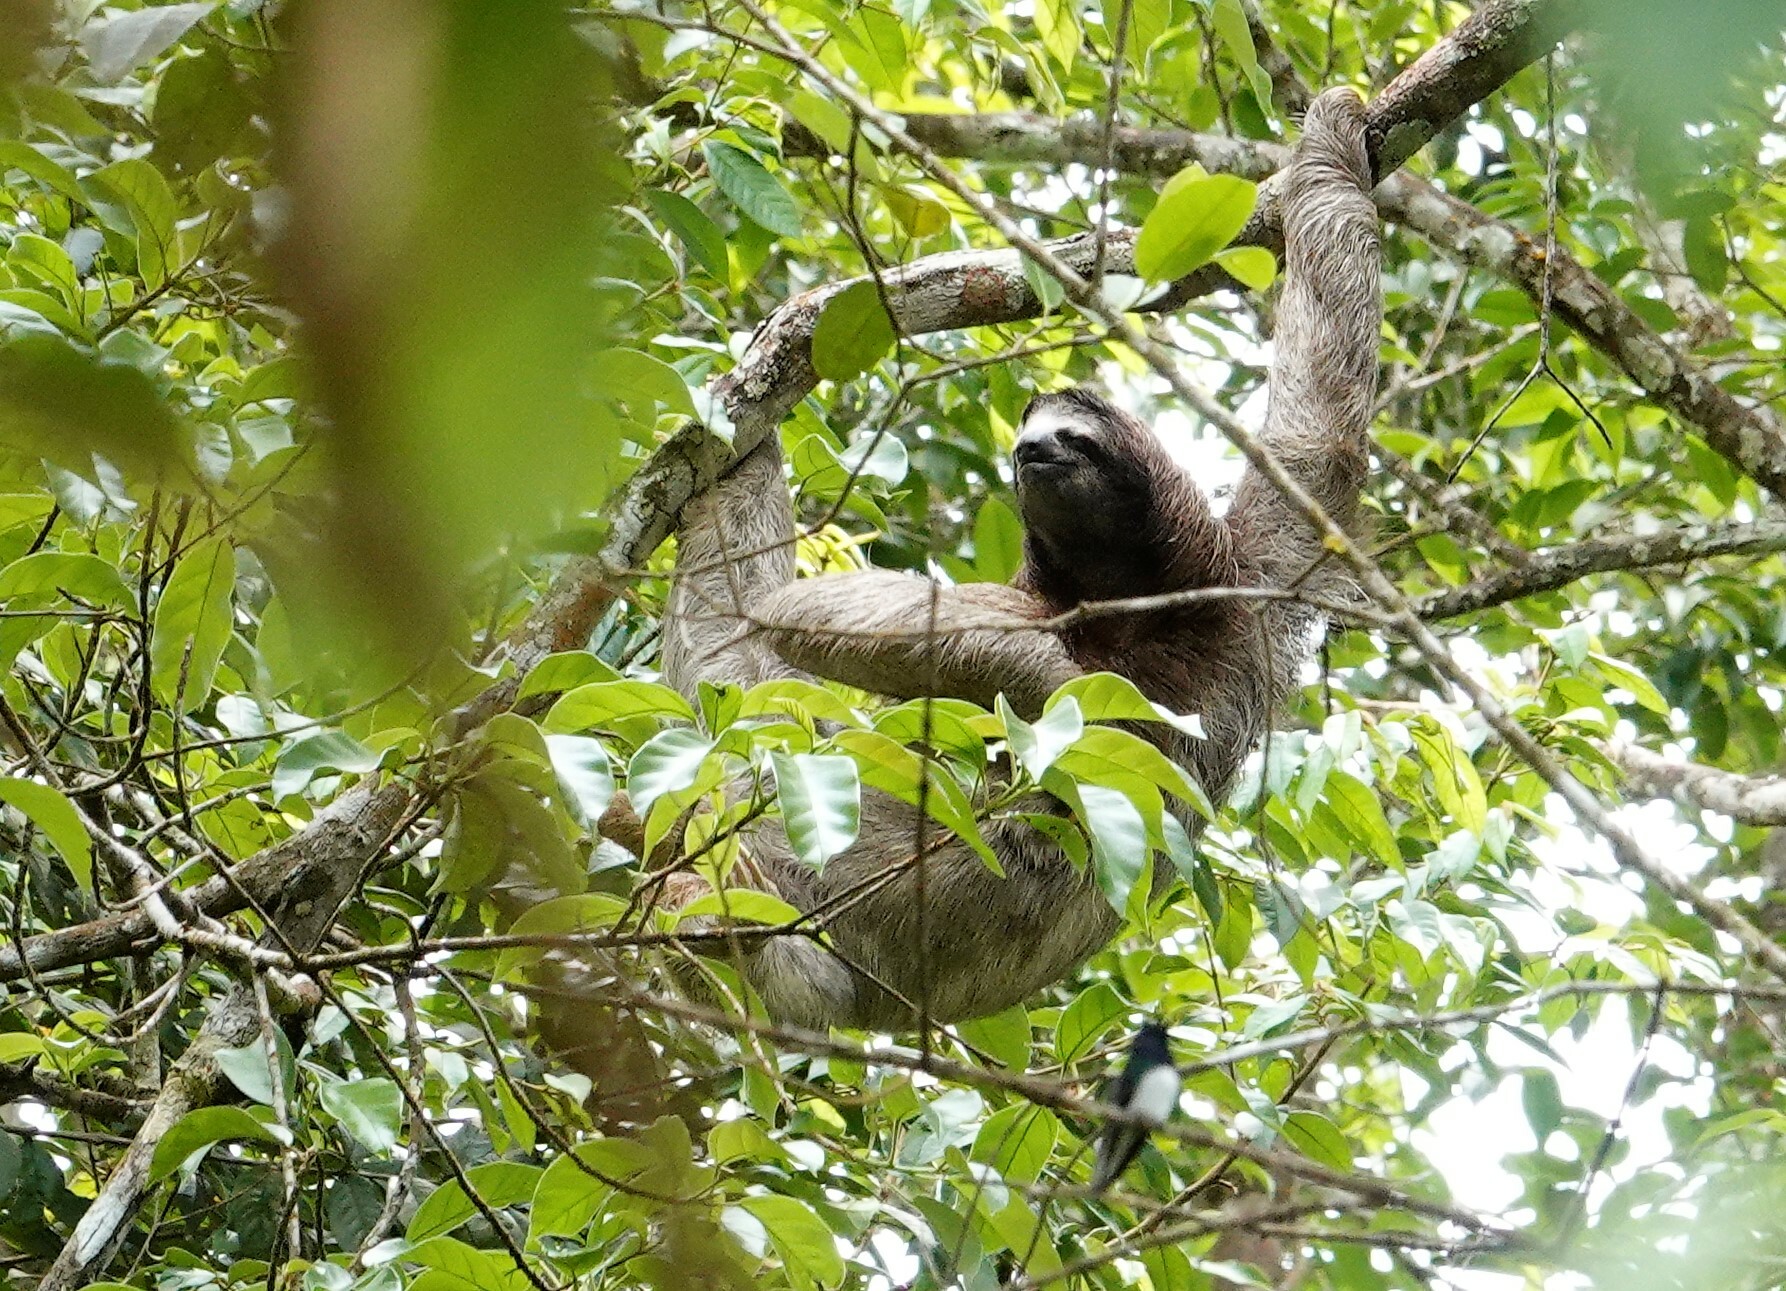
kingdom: Animalia
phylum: Chordata
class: Mammalia
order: Pilosa
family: Bradypodidae
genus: Bradypus
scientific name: Bradypus variegatus
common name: Brown-throated three-toed sloth
